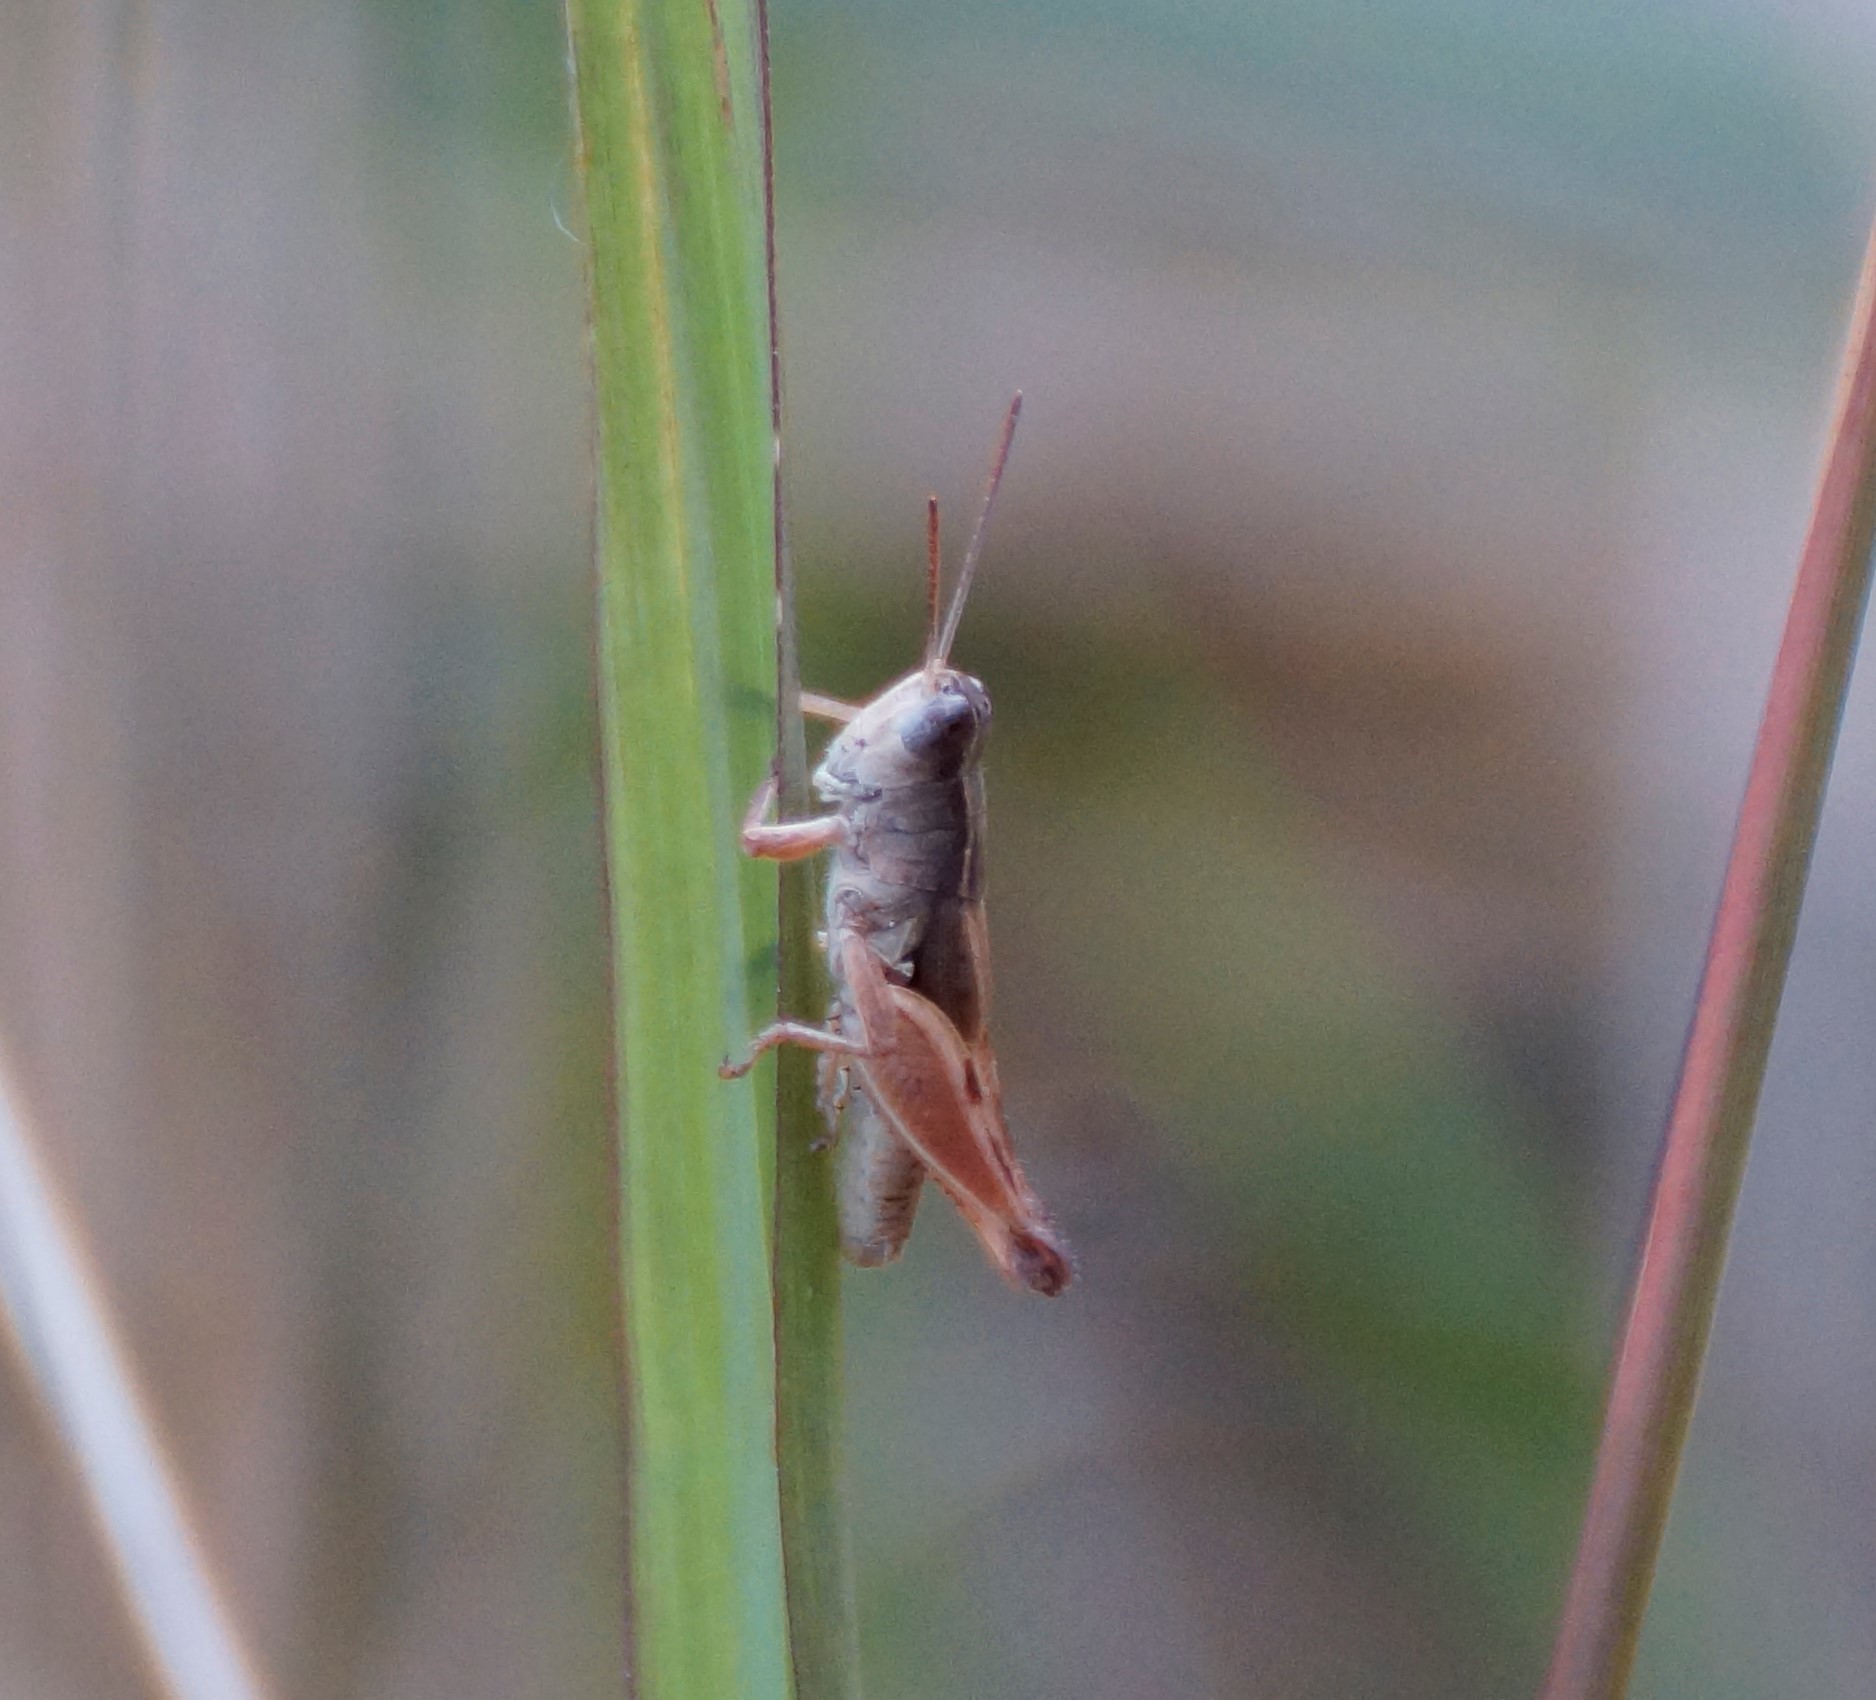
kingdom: Animalia
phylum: Arthropoda
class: Insecta
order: Orthoptera
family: Acrididae
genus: Phaulacridium
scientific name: Phaulacridium vittatum
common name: Wingless grasshopper
